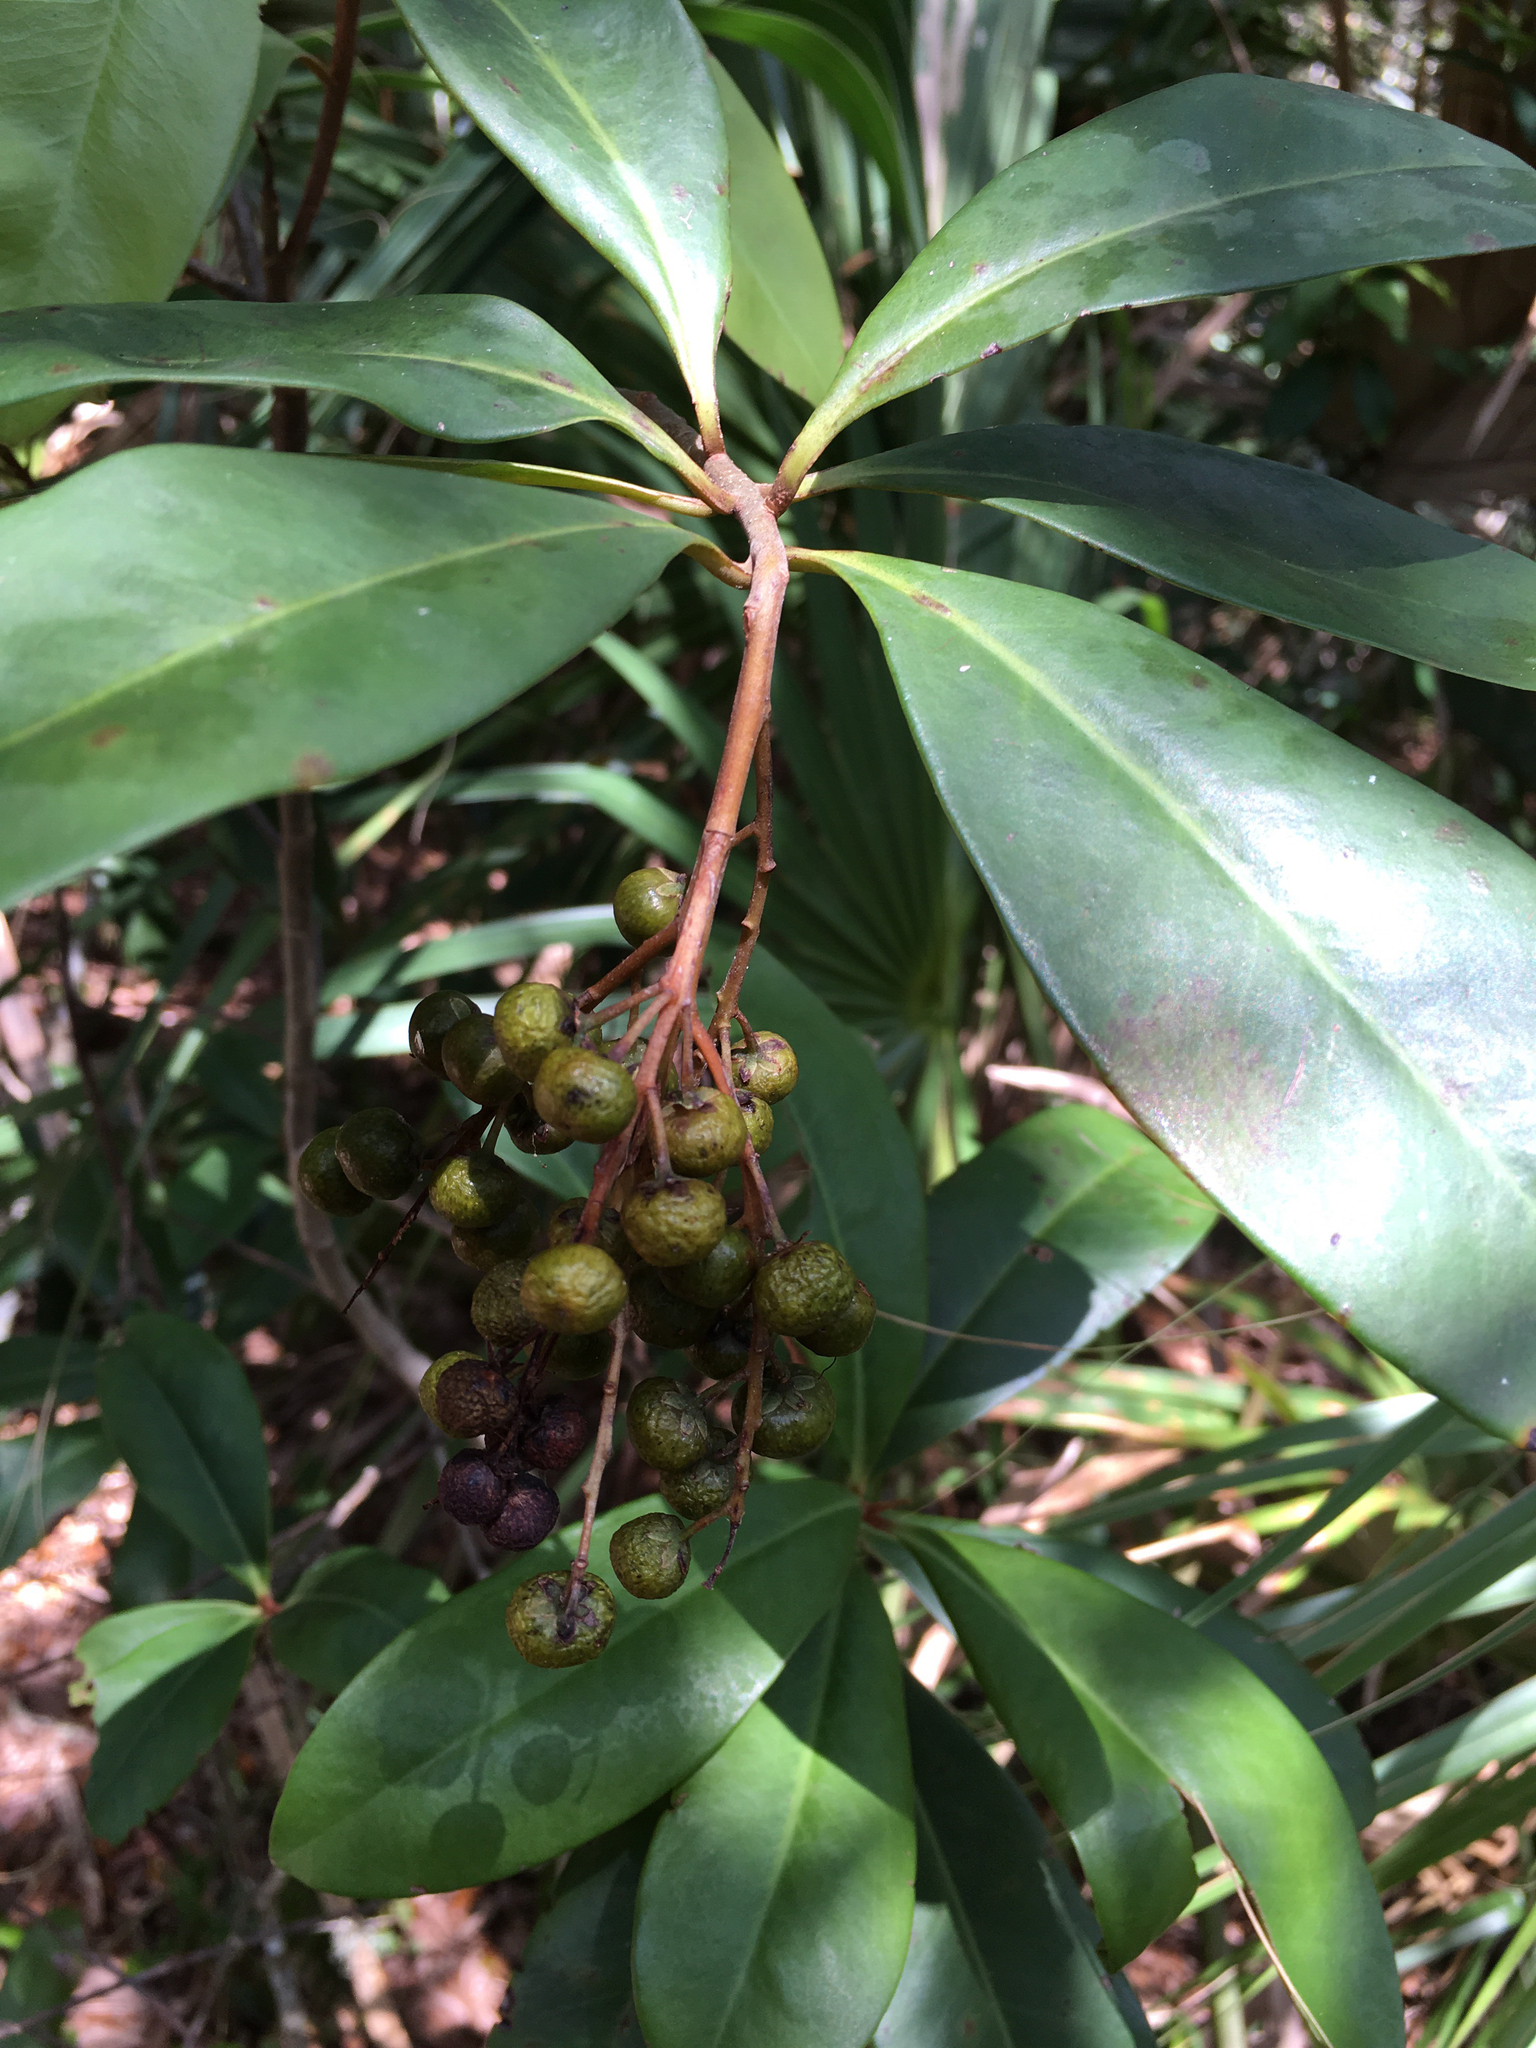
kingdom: Plantae
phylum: Tracheophyta
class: Magnoliopsida
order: Ericales
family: Primulaceae
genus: Ardisia
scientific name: Ardisia escallonioides
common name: Island marlberry
